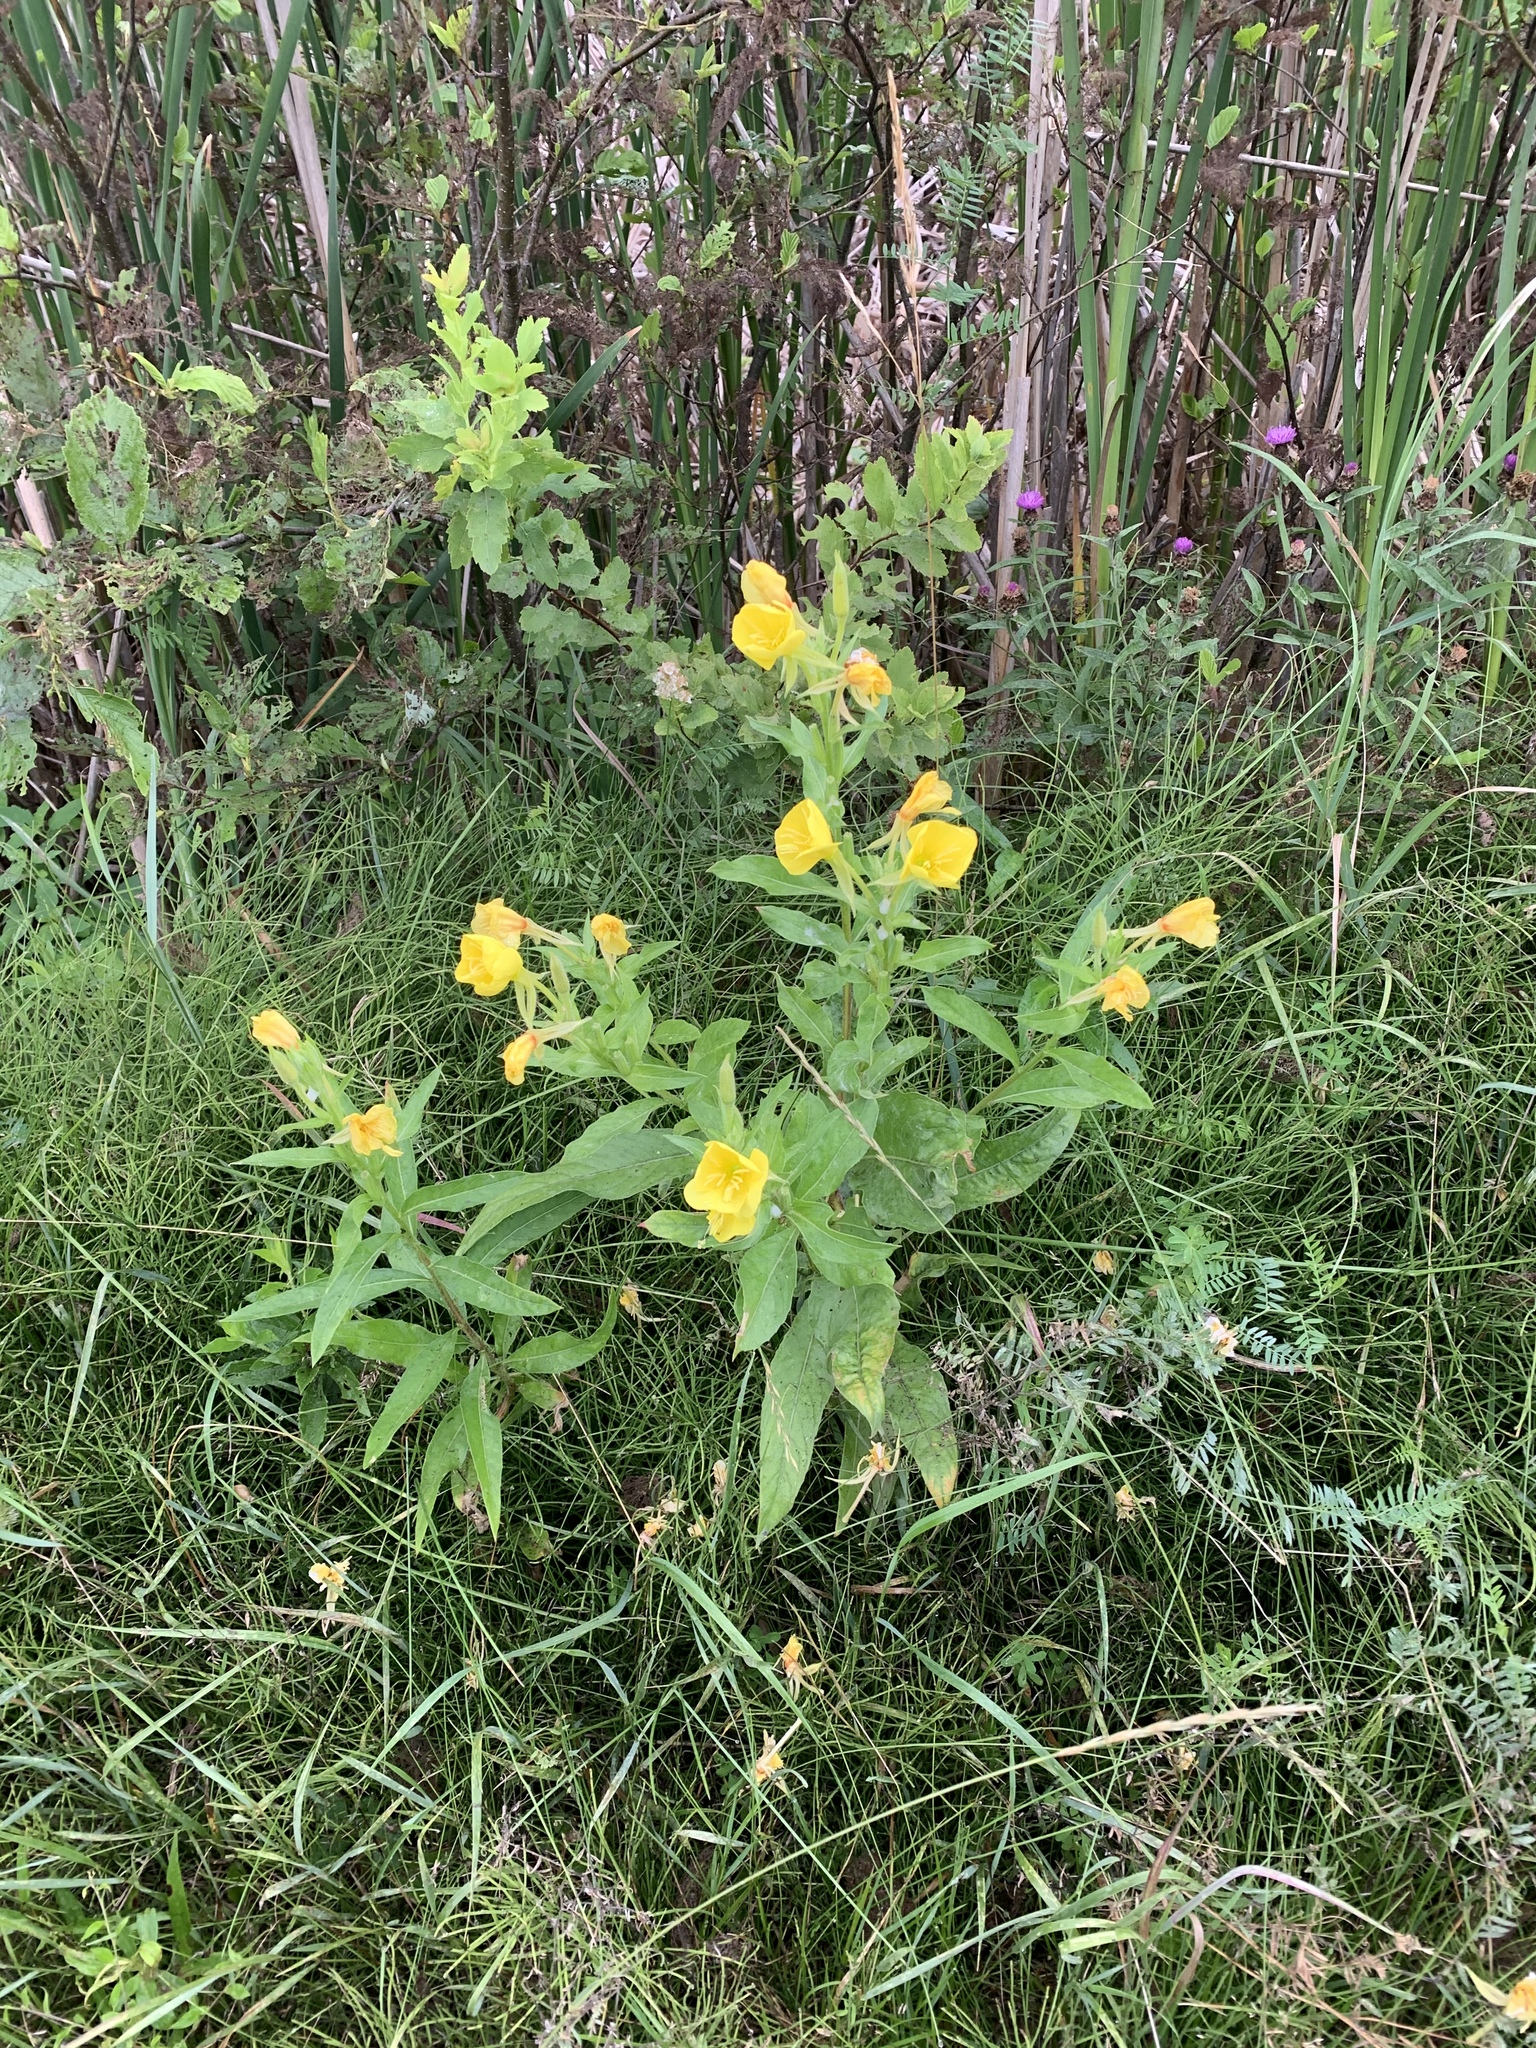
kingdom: Plantae
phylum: Tracheophyta
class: Magnoliopsida
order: Myrtales
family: Onagraceae
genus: Oenothera
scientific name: Oenothera biennis
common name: Common evening-primrose
